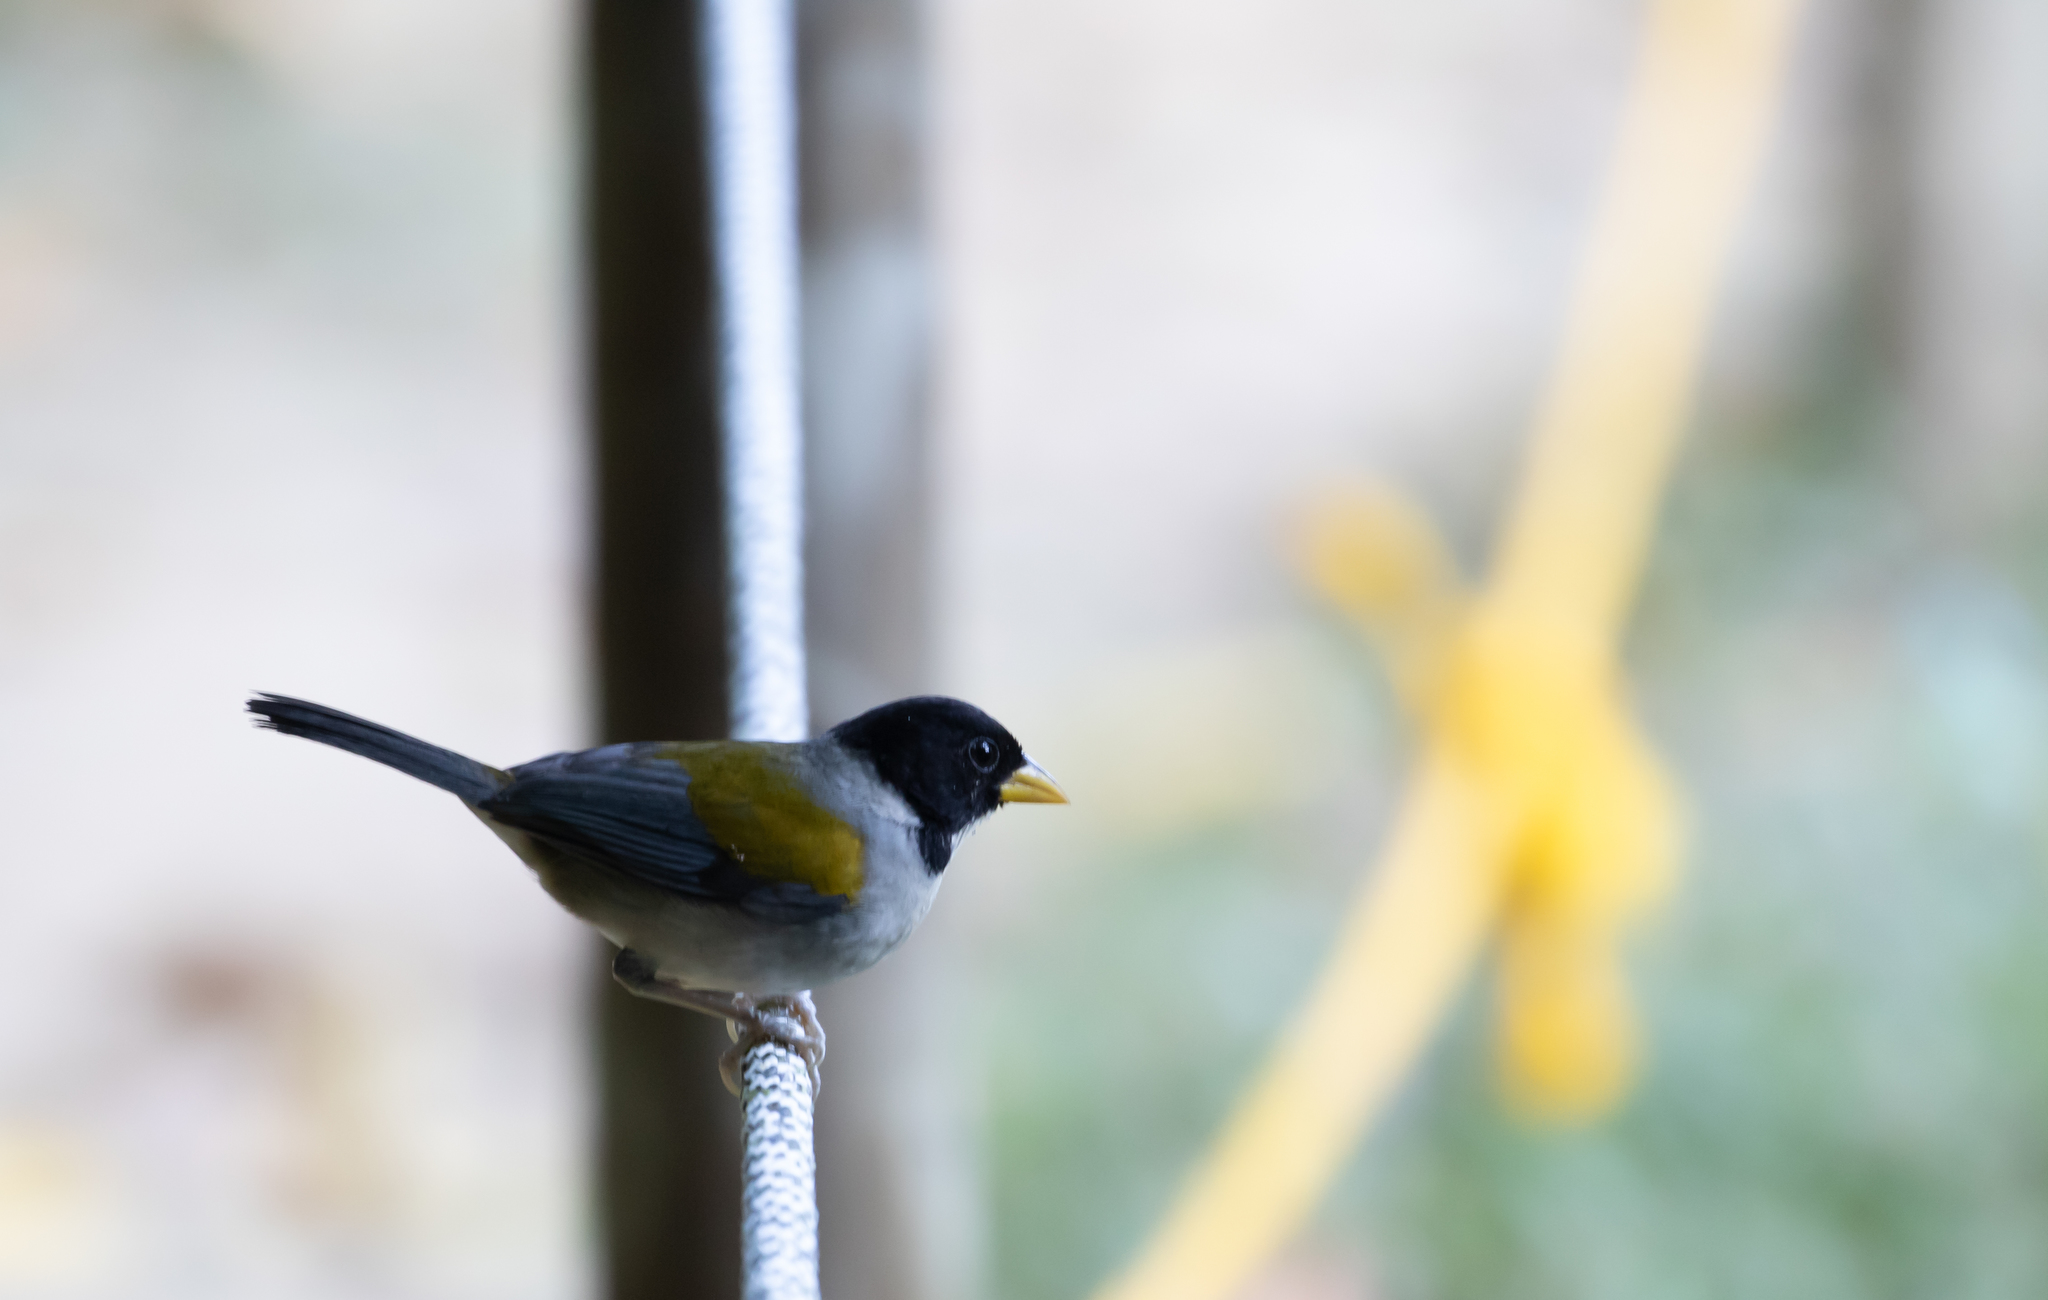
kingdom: Animalia
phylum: Chordata
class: Aves
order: Passeriformes
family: Passerellidae
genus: Arremon
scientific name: Arremon schlegeli
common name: Golden-winged sparrow
